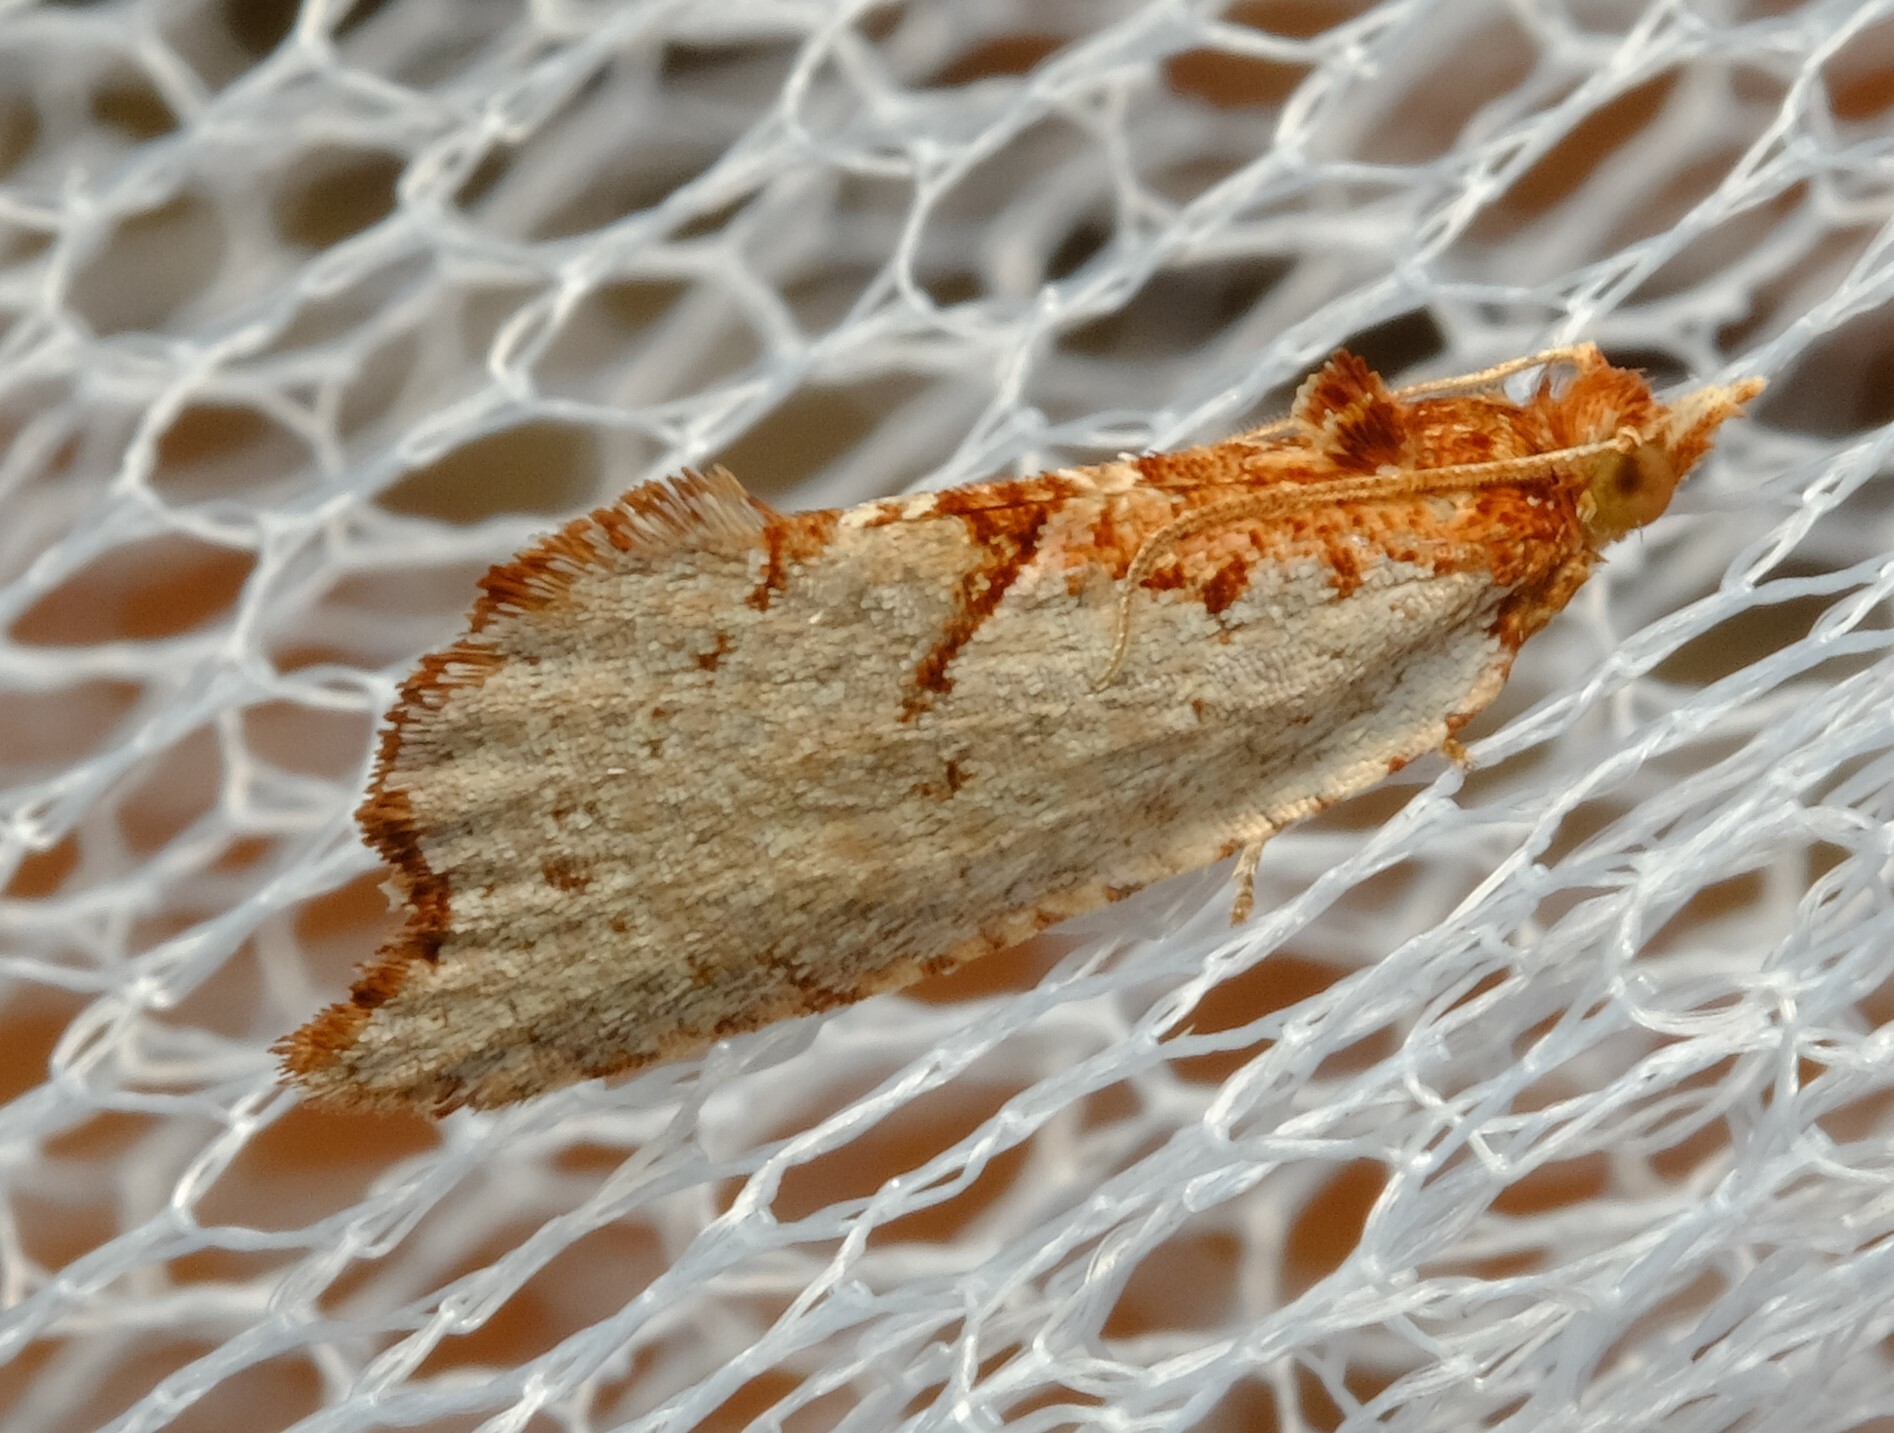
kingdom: Animalia
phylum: Arthropoda
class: Insecta
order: Lepidoptera
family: Tortricidae
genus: Glyphidoptera
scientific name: Glyphidoptera polymita
